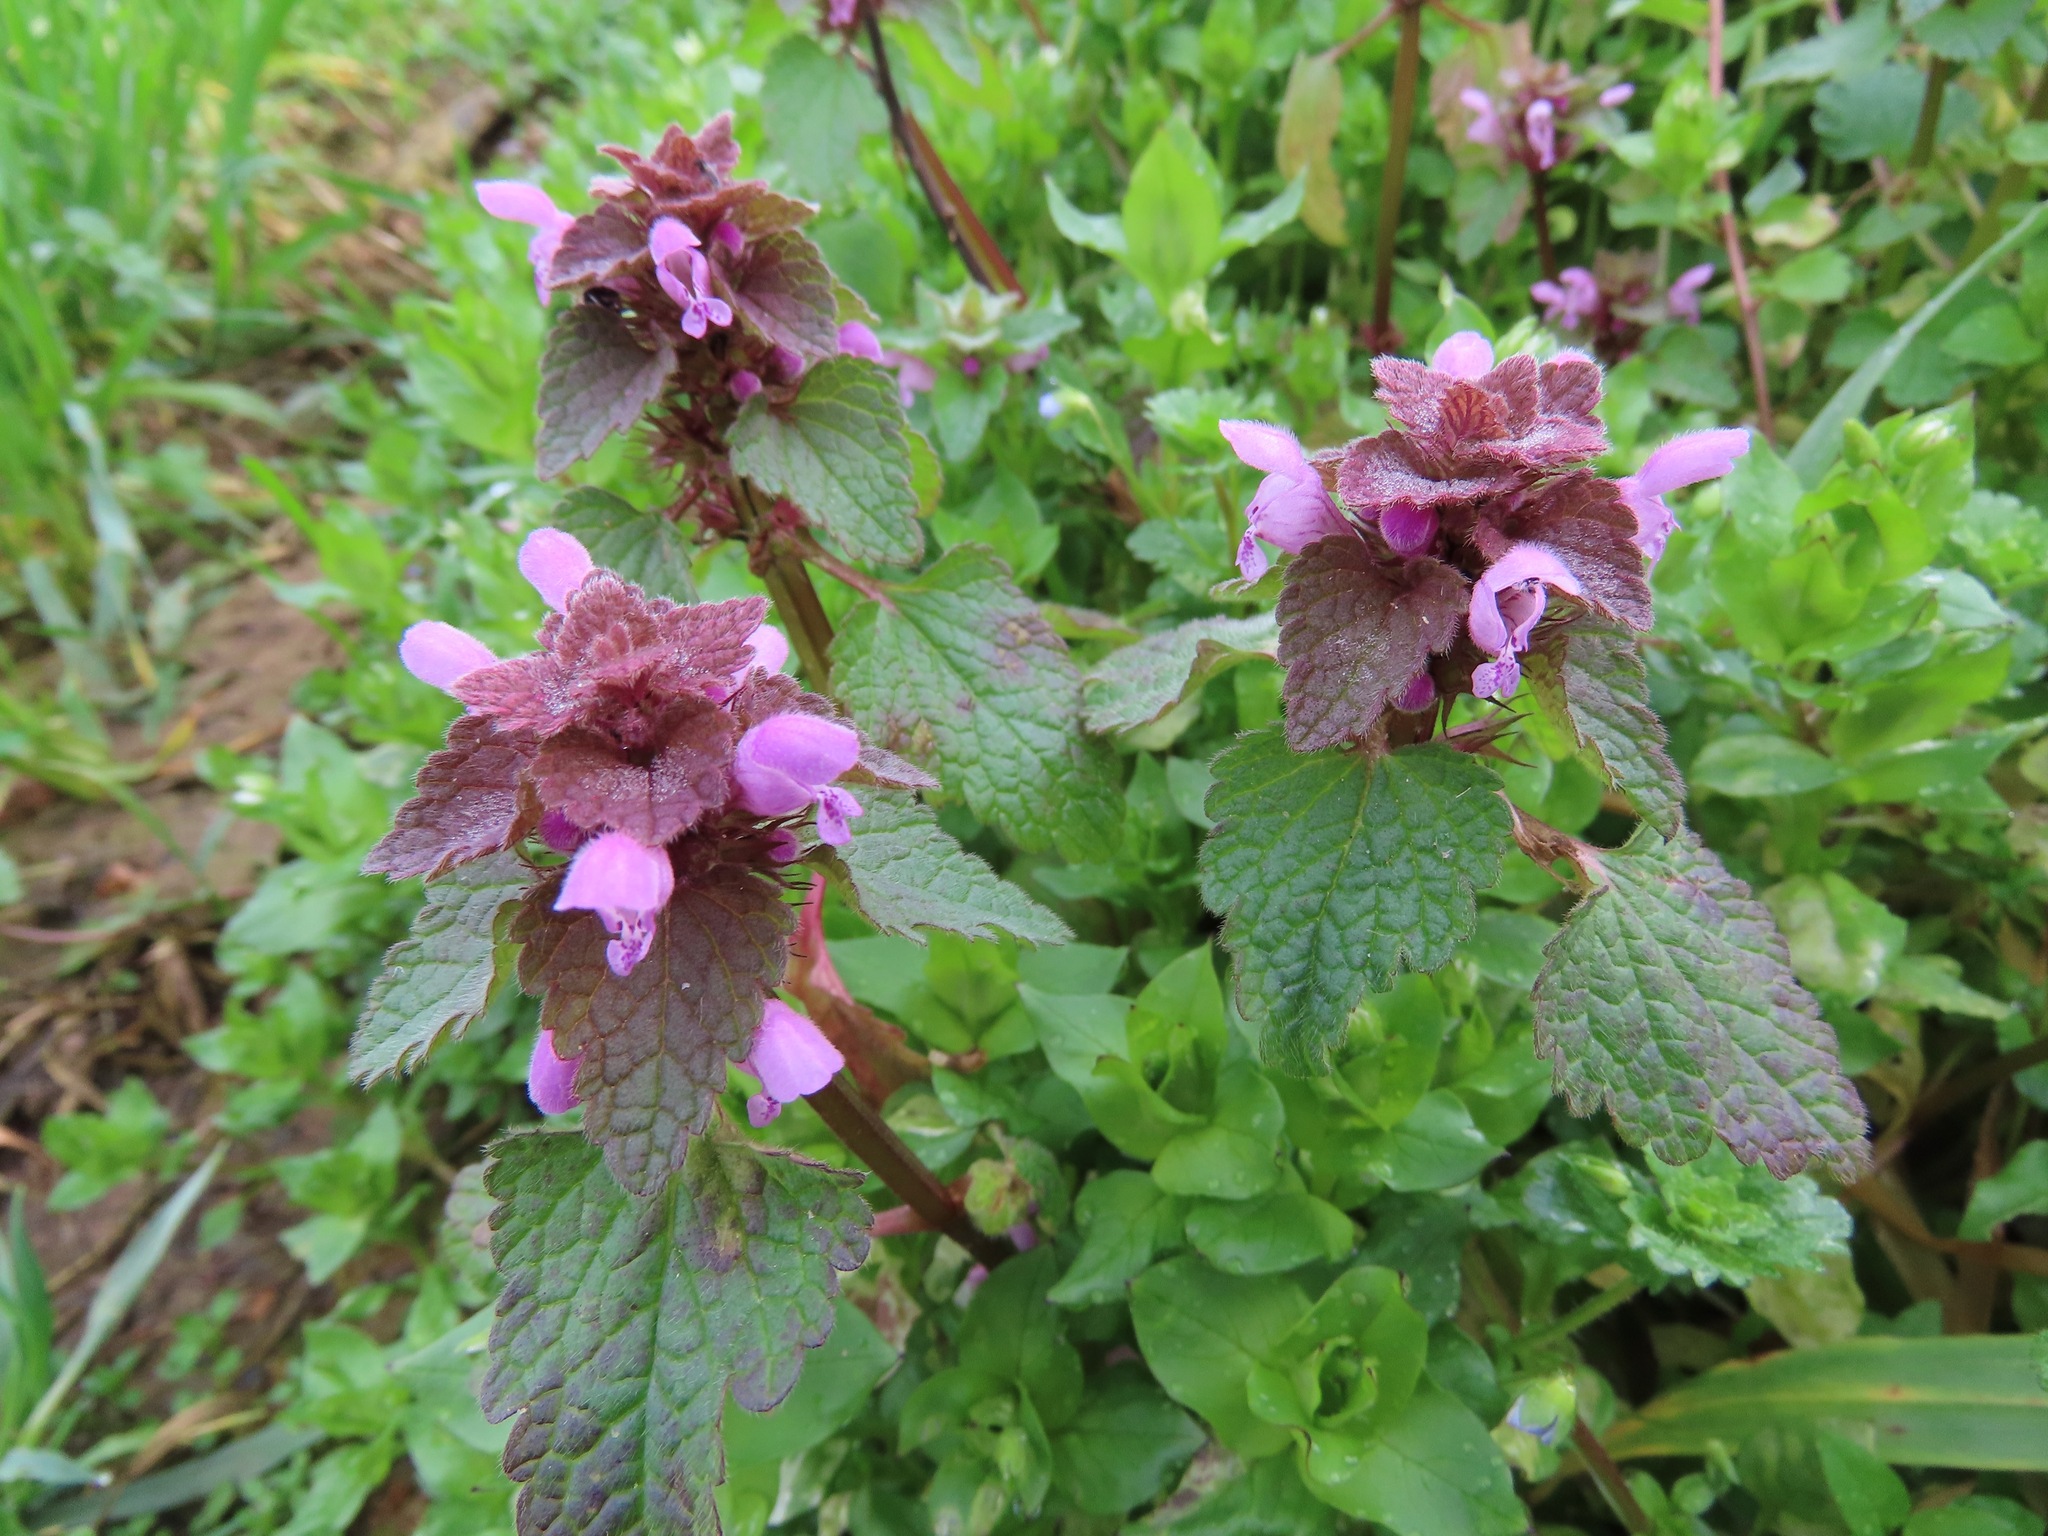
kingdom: Plantae
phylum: Tracheophyta
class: Magnoliopsida
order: Lamiales
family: Lamiaceae
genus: Lamium
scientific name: Lamium purpureum
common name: Red dead-nettle
